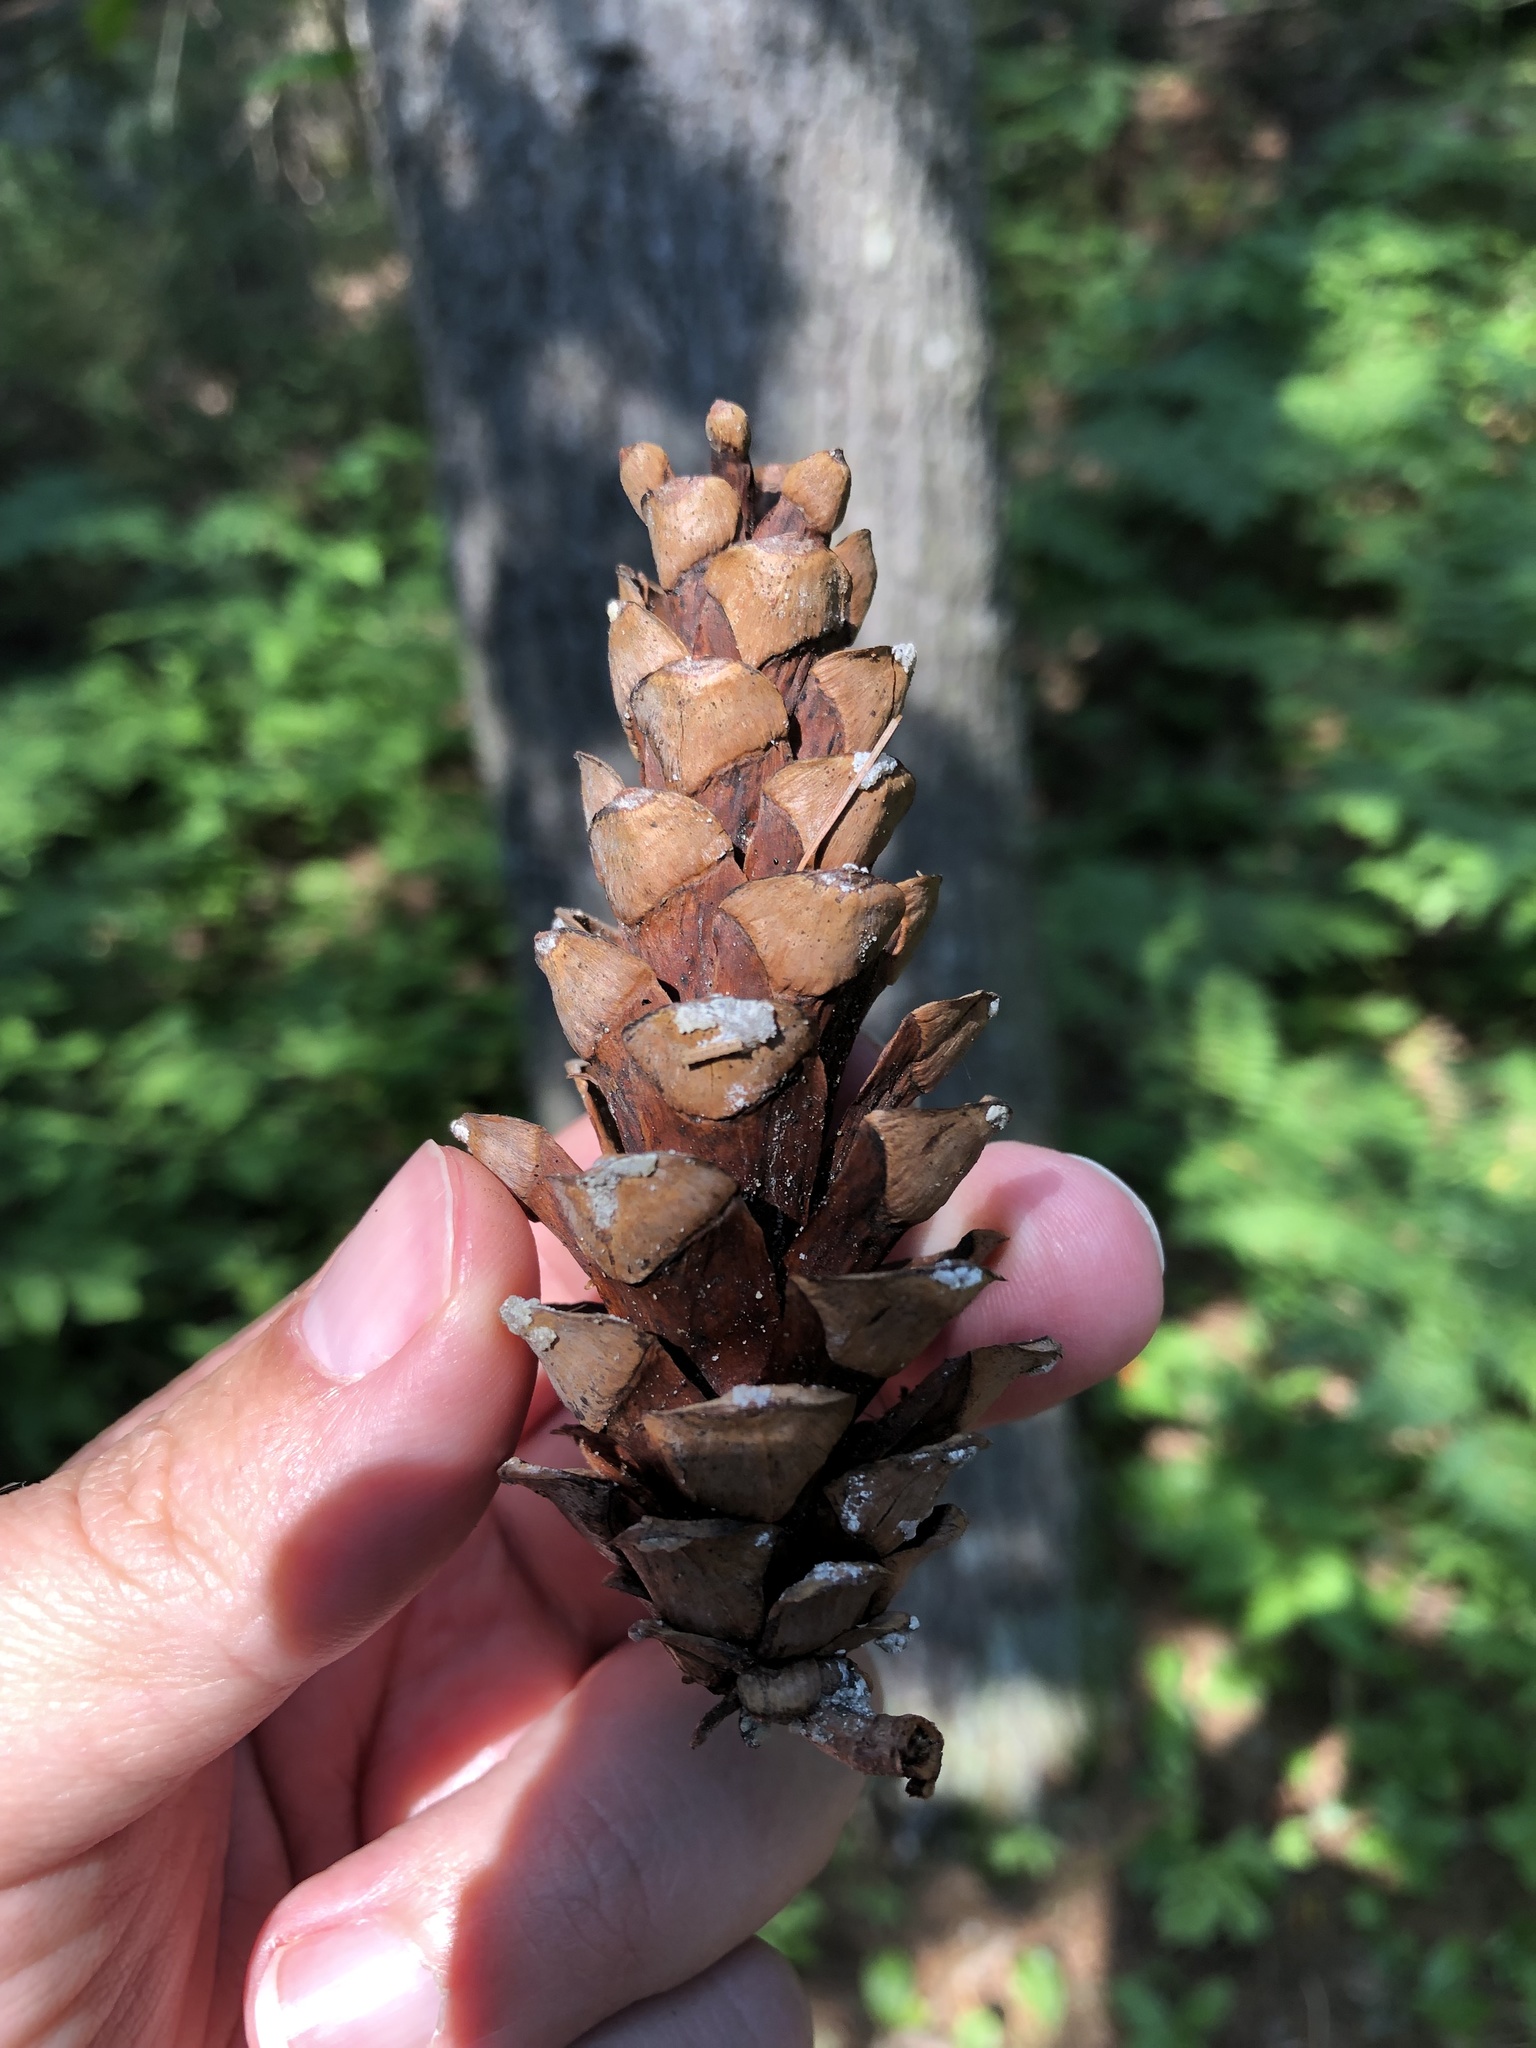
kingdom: Plantae
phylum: Tracheophyta
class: Pinopsida
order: Pinales
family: Pinaceae
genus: Pinus
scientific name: Pinus strobus
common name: Weymouth pine
